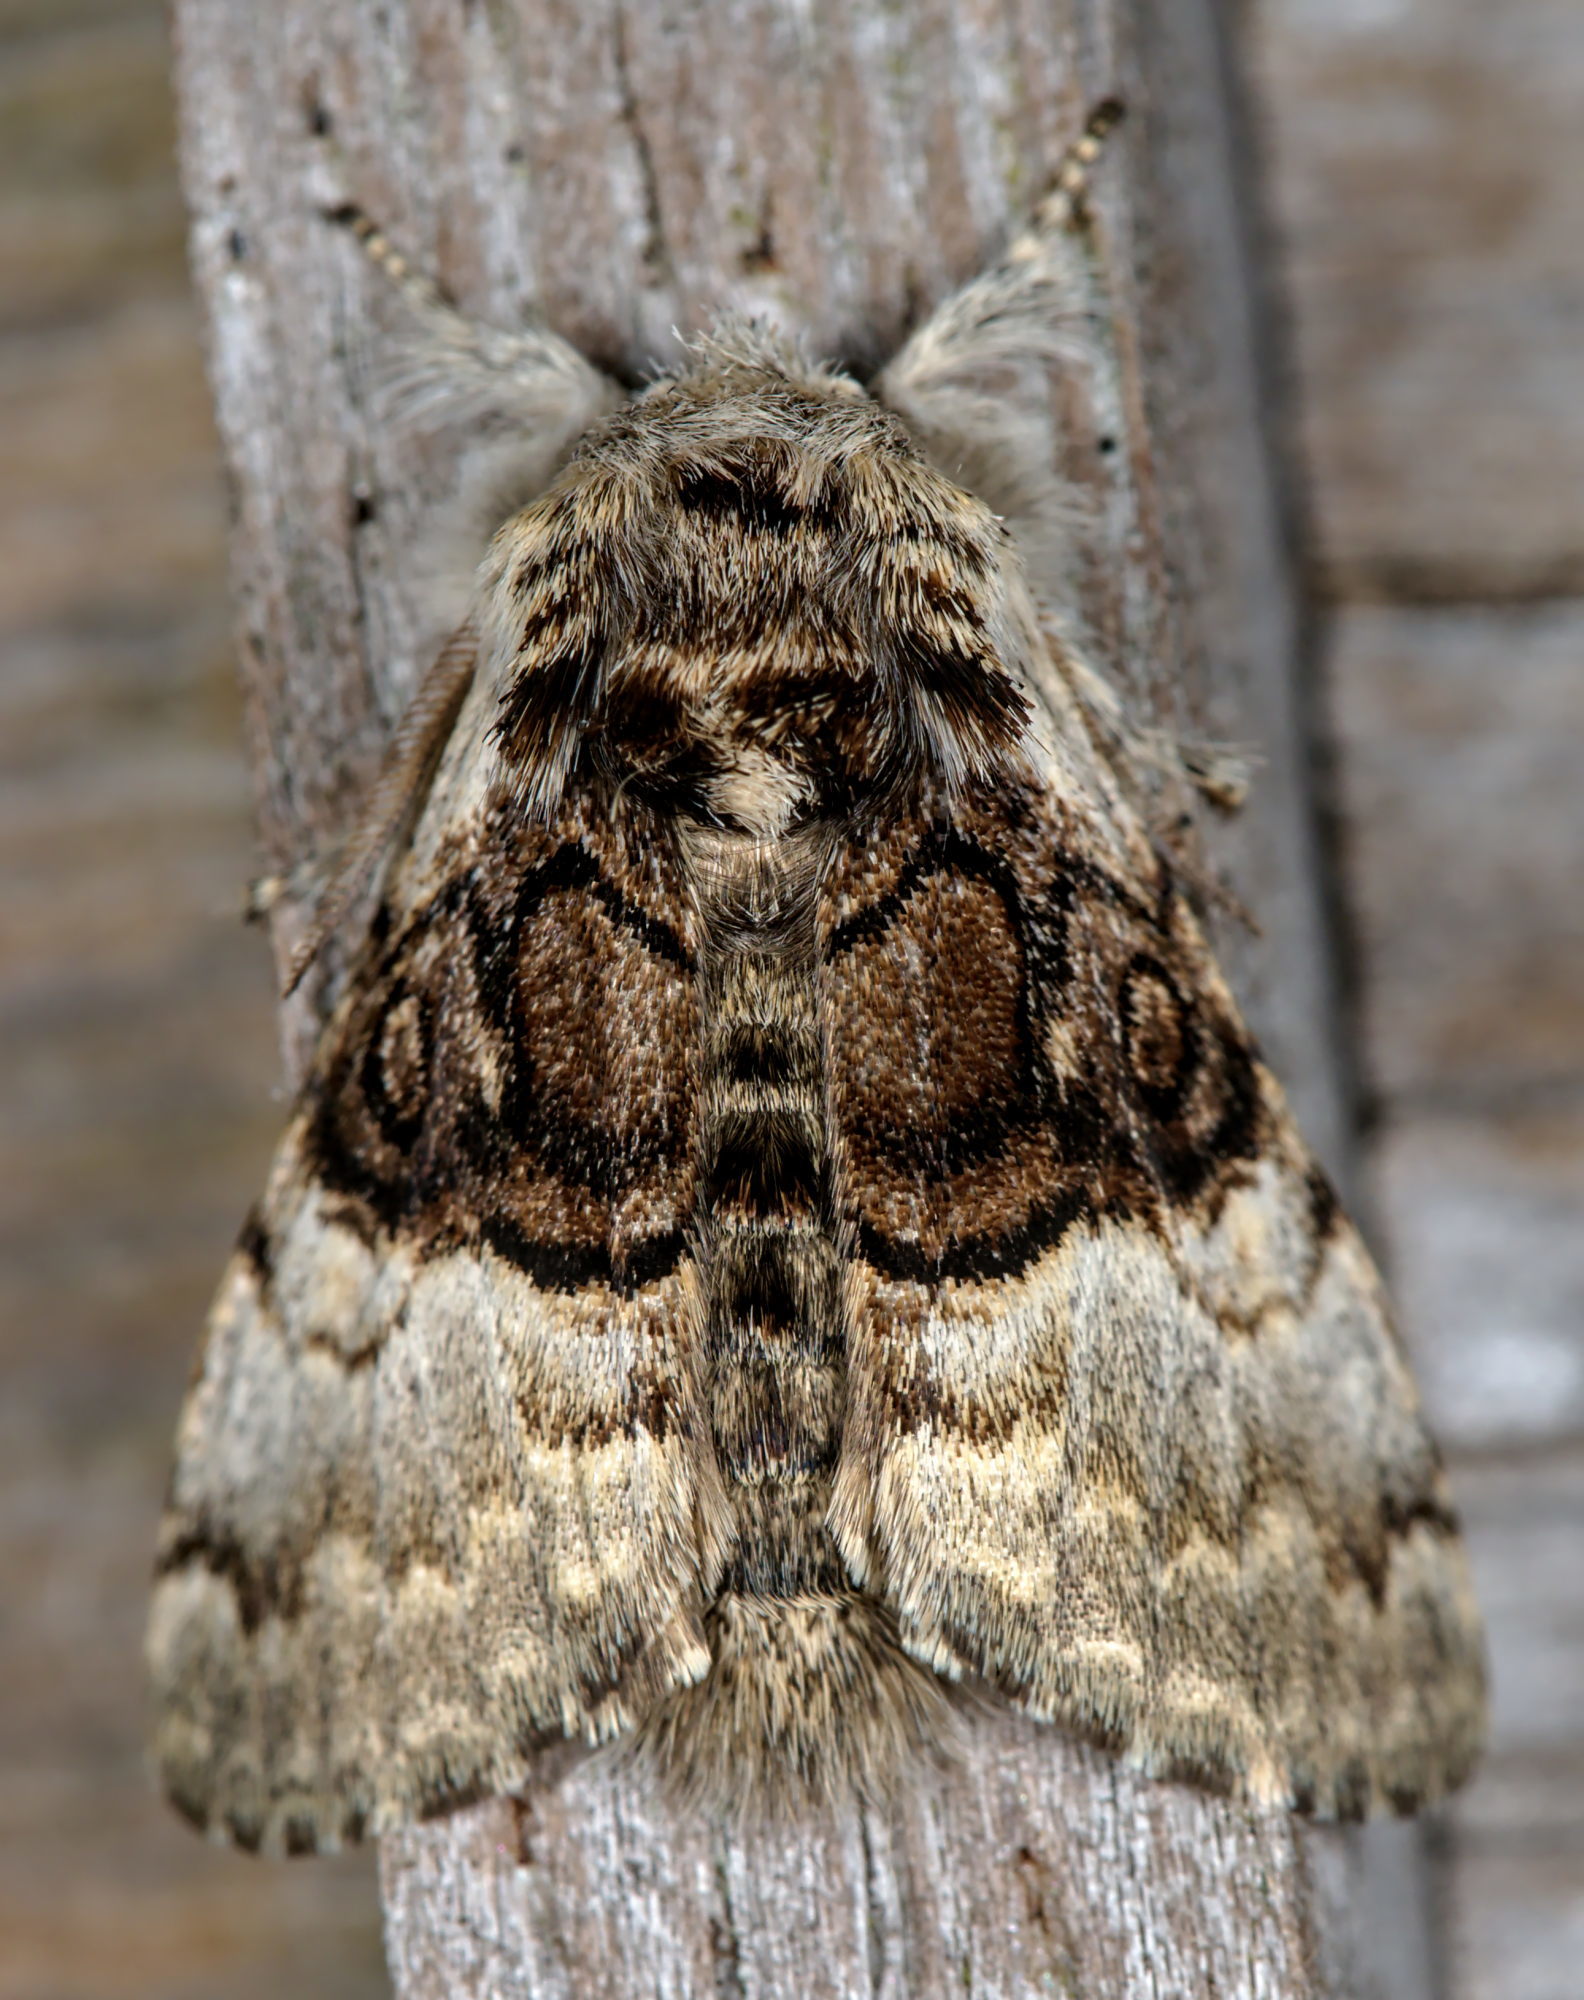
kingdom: Animalia
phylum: Arthropoda
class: Insecta
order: Lepidoptera
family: Noctuidae
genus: Colocasia
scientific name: Colocasia coryli
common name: Nut-tree tussock
